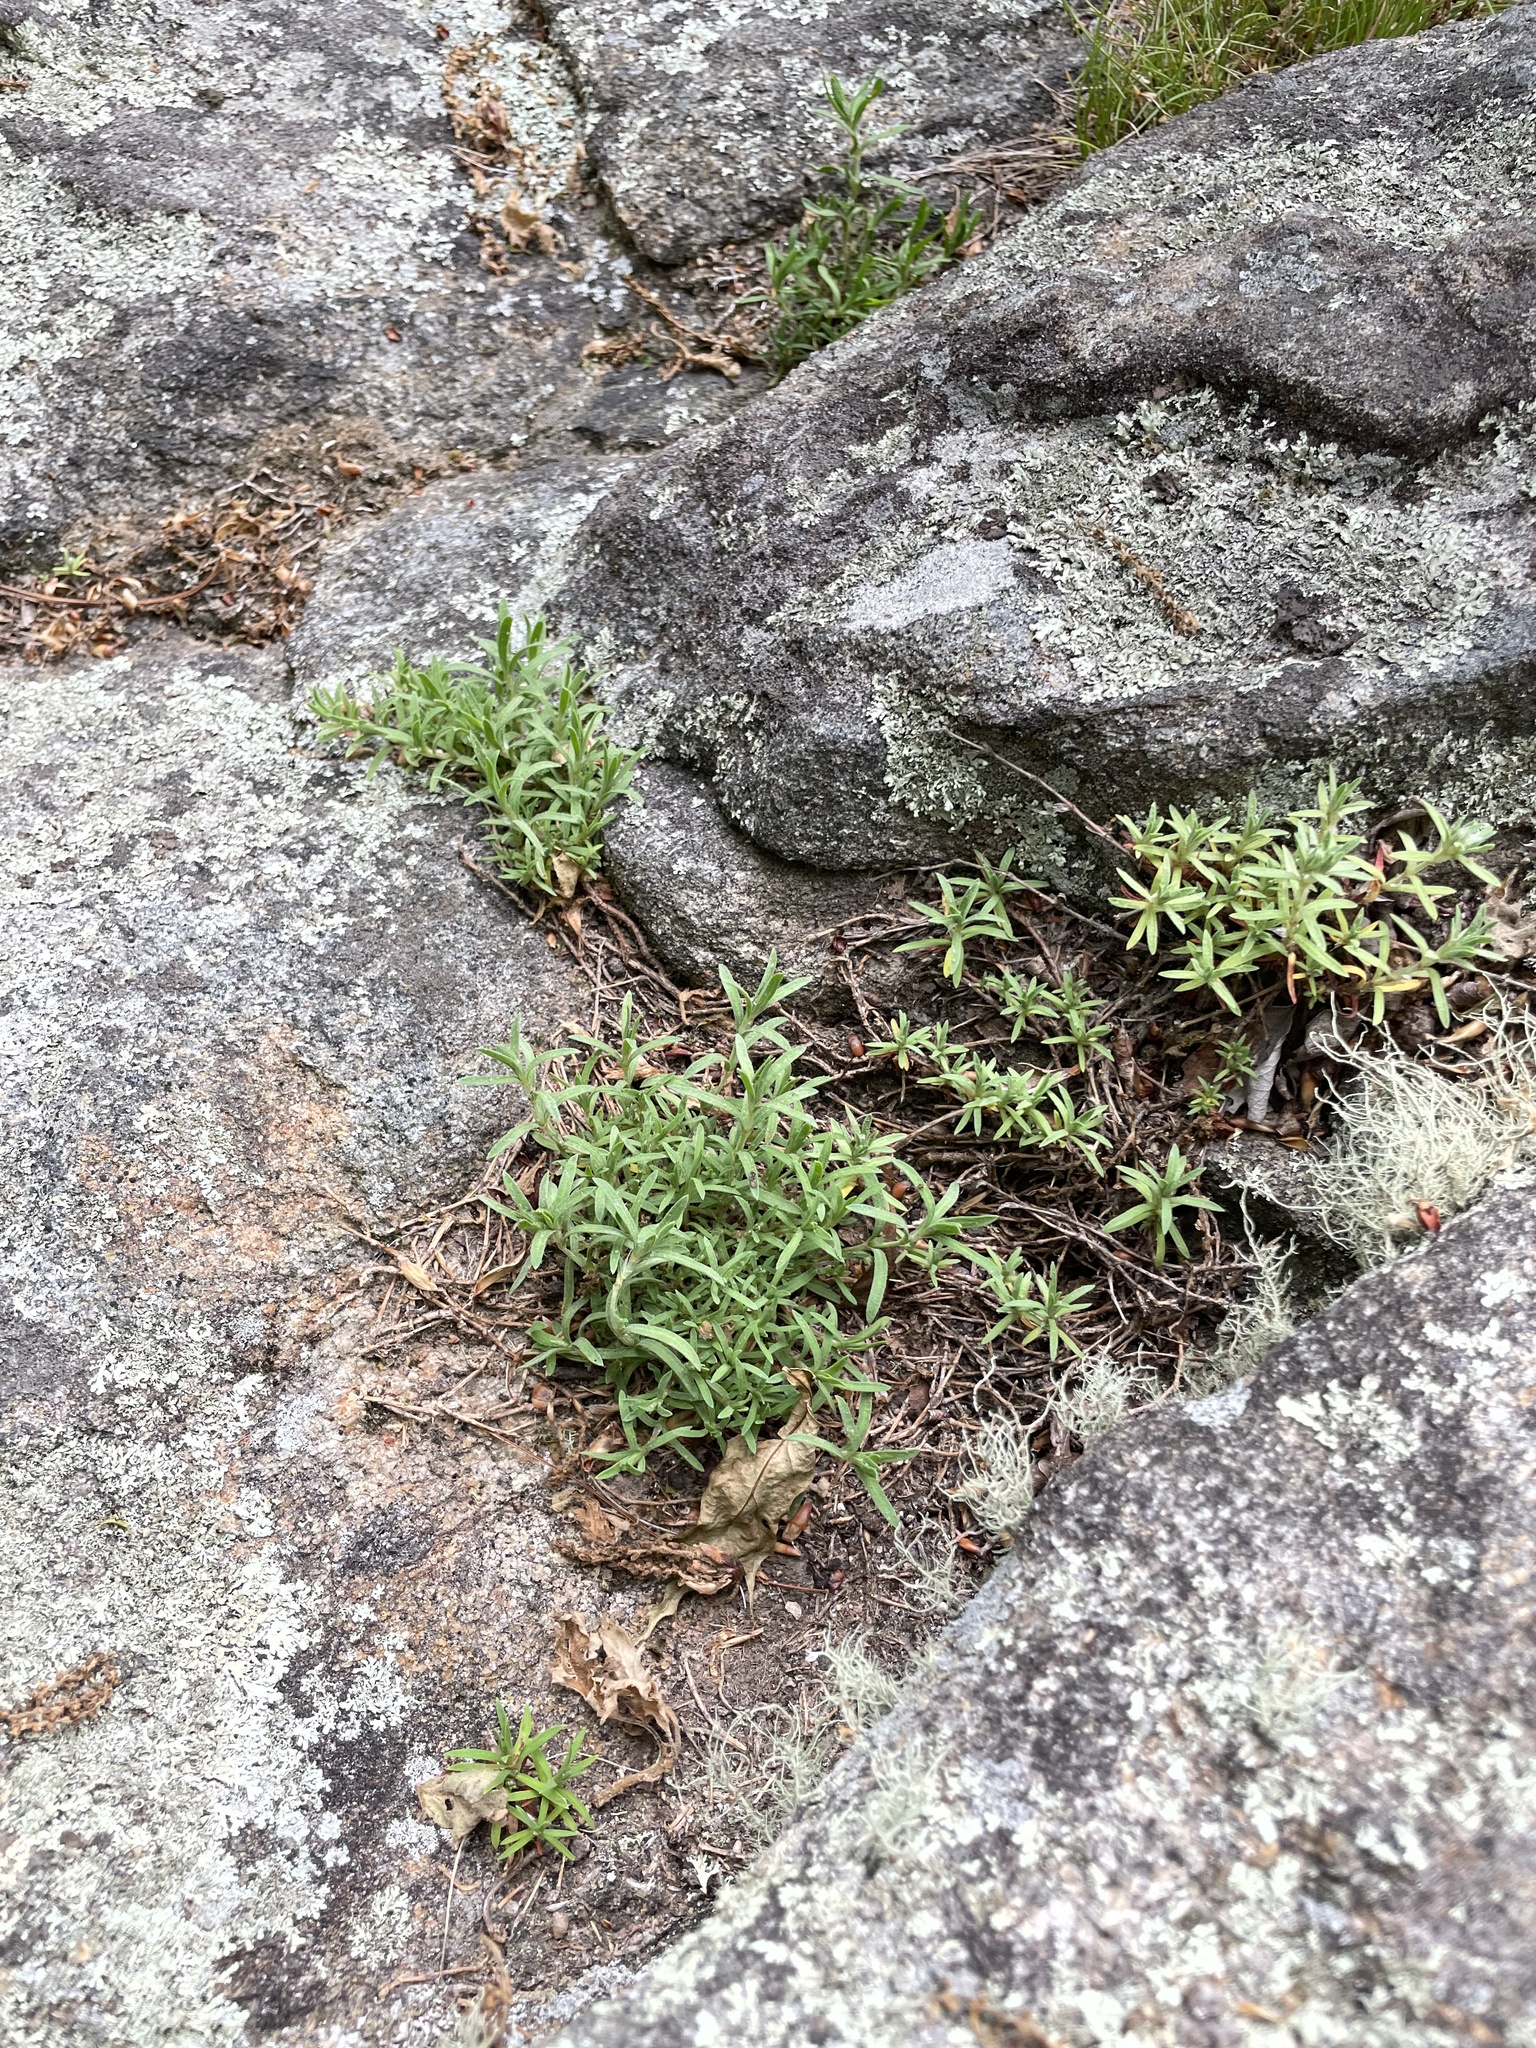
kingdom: Plantae
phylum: Tracheophyta
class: Magnoliopsida
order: Caryophyllales
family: Caryophyllaceae
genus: Paronychia
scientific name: Paronychia argyrocoma
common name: Silverling
